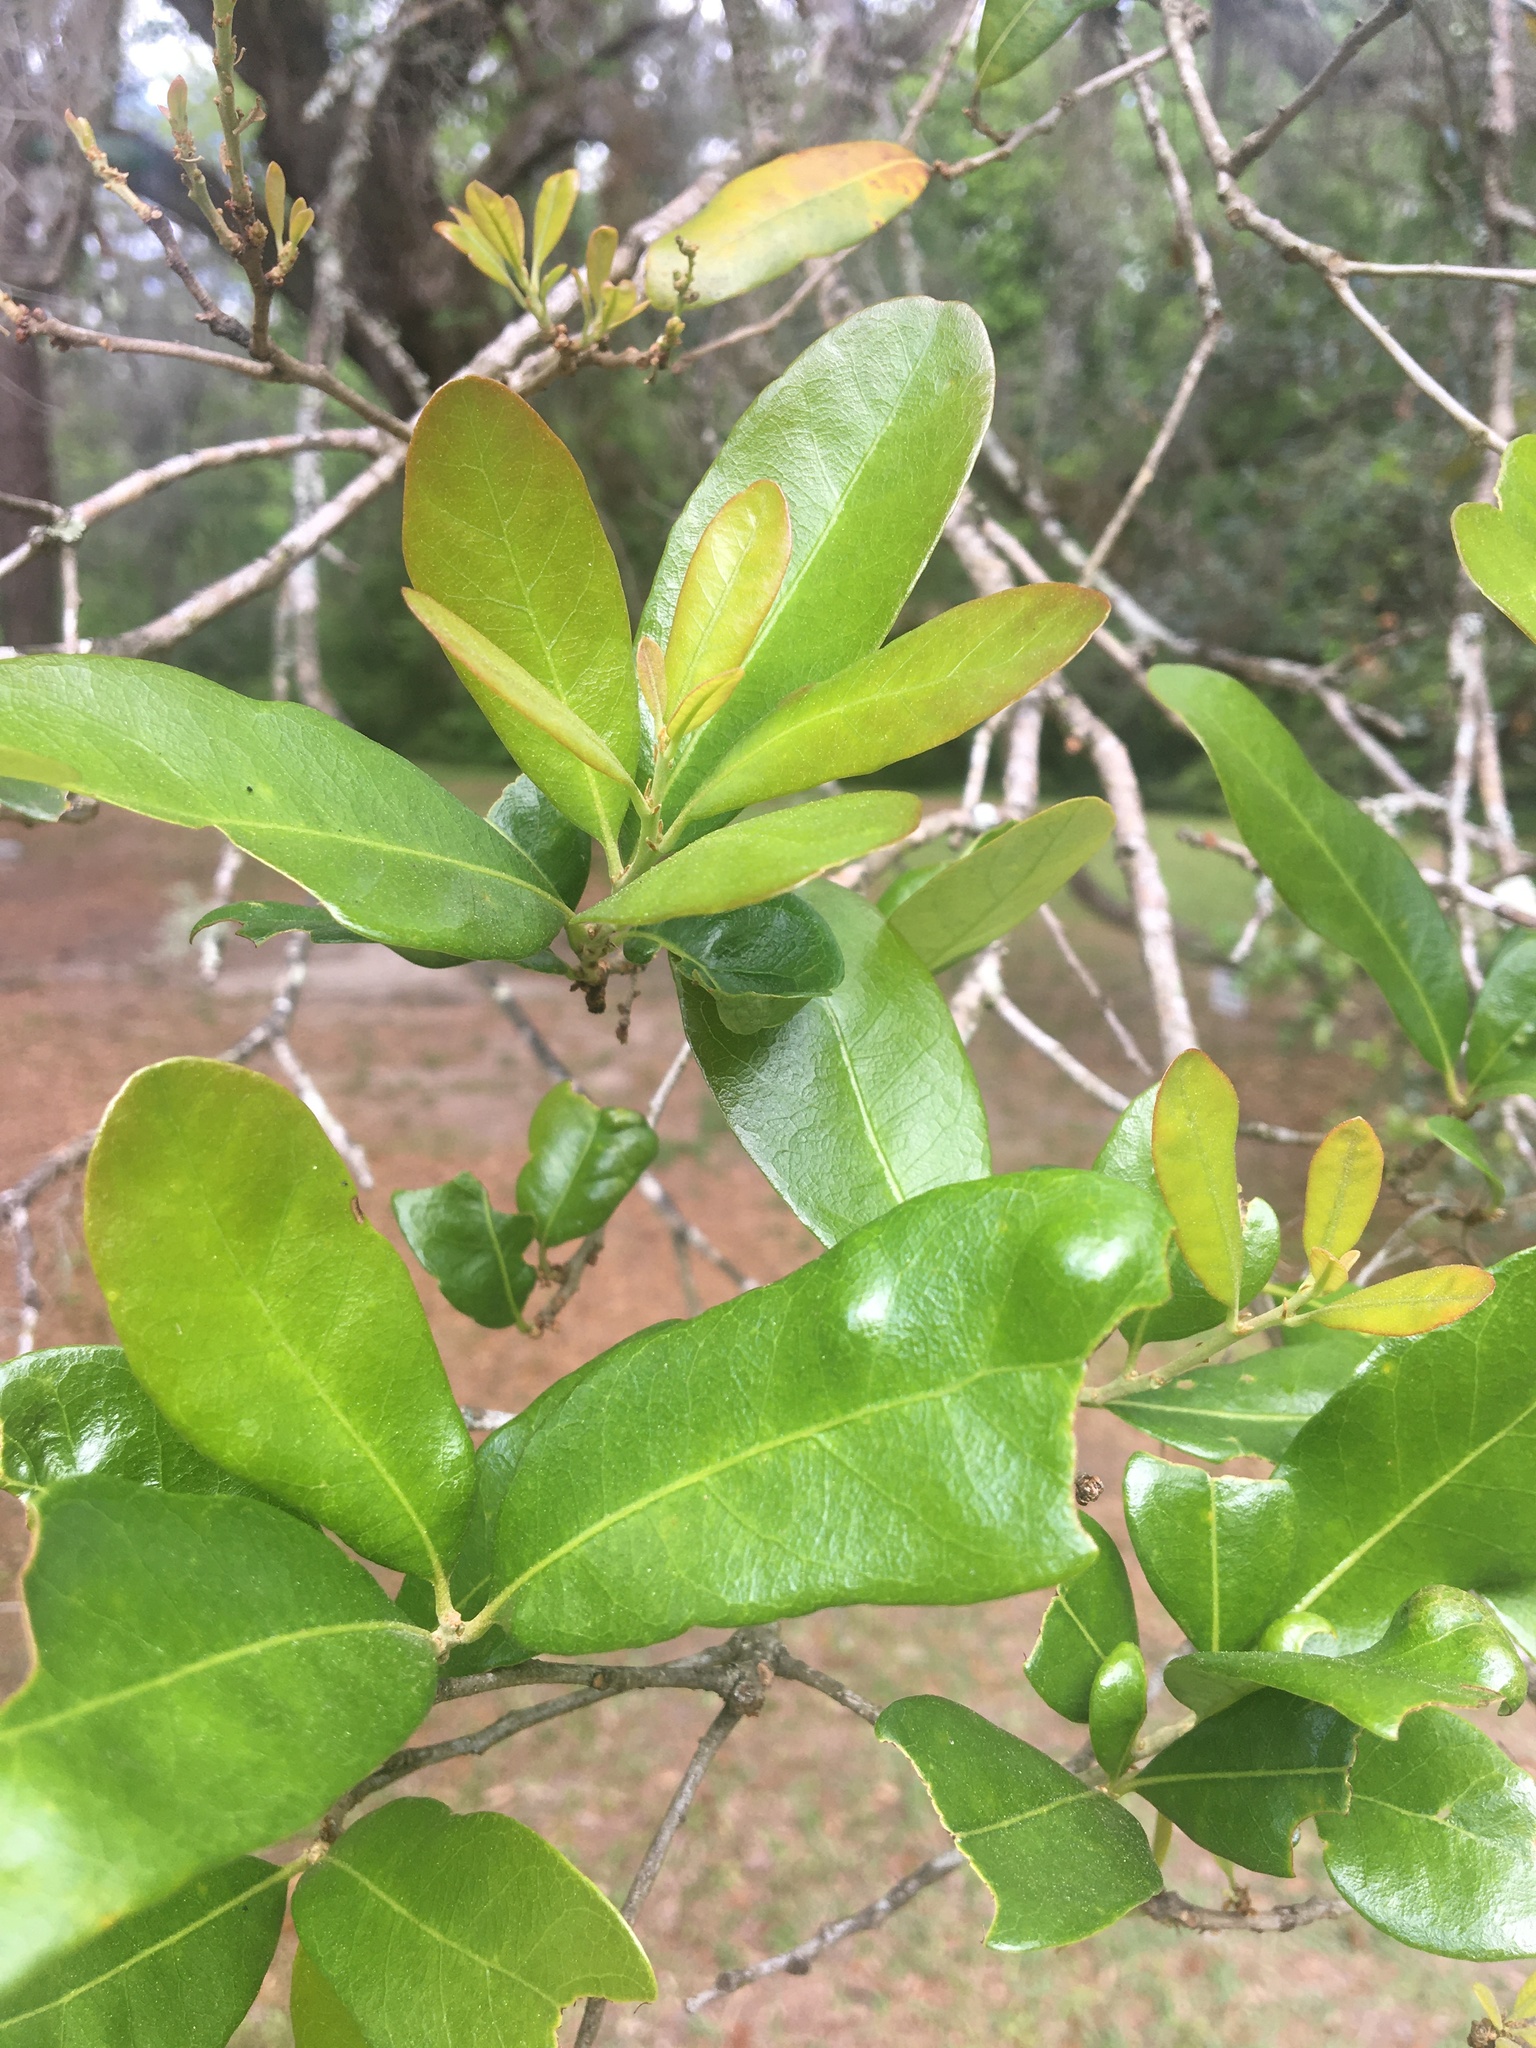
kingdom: Plantae
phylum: Tracheophyta
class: Magnoliopsida
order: Fagales
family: Fagaceae
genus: Quercus
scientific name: Quercus virginiana
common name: Southern live oak
